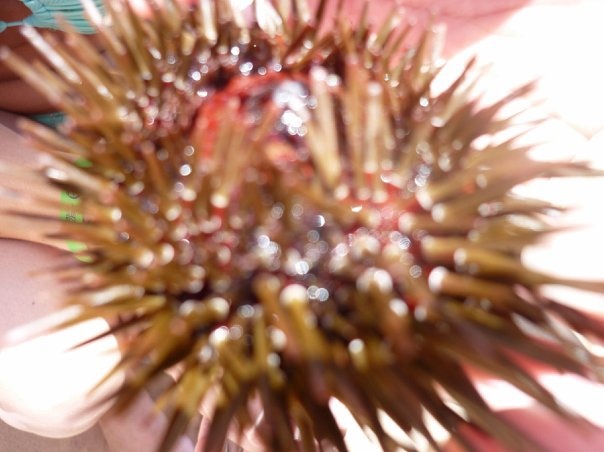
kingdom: Animalia
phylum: Echinodermata
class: Echinoidea
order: Camarodonta
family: Echinometridae
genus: Echinometra
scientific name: Echinometra mathaei
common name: Rock-boring urchin
